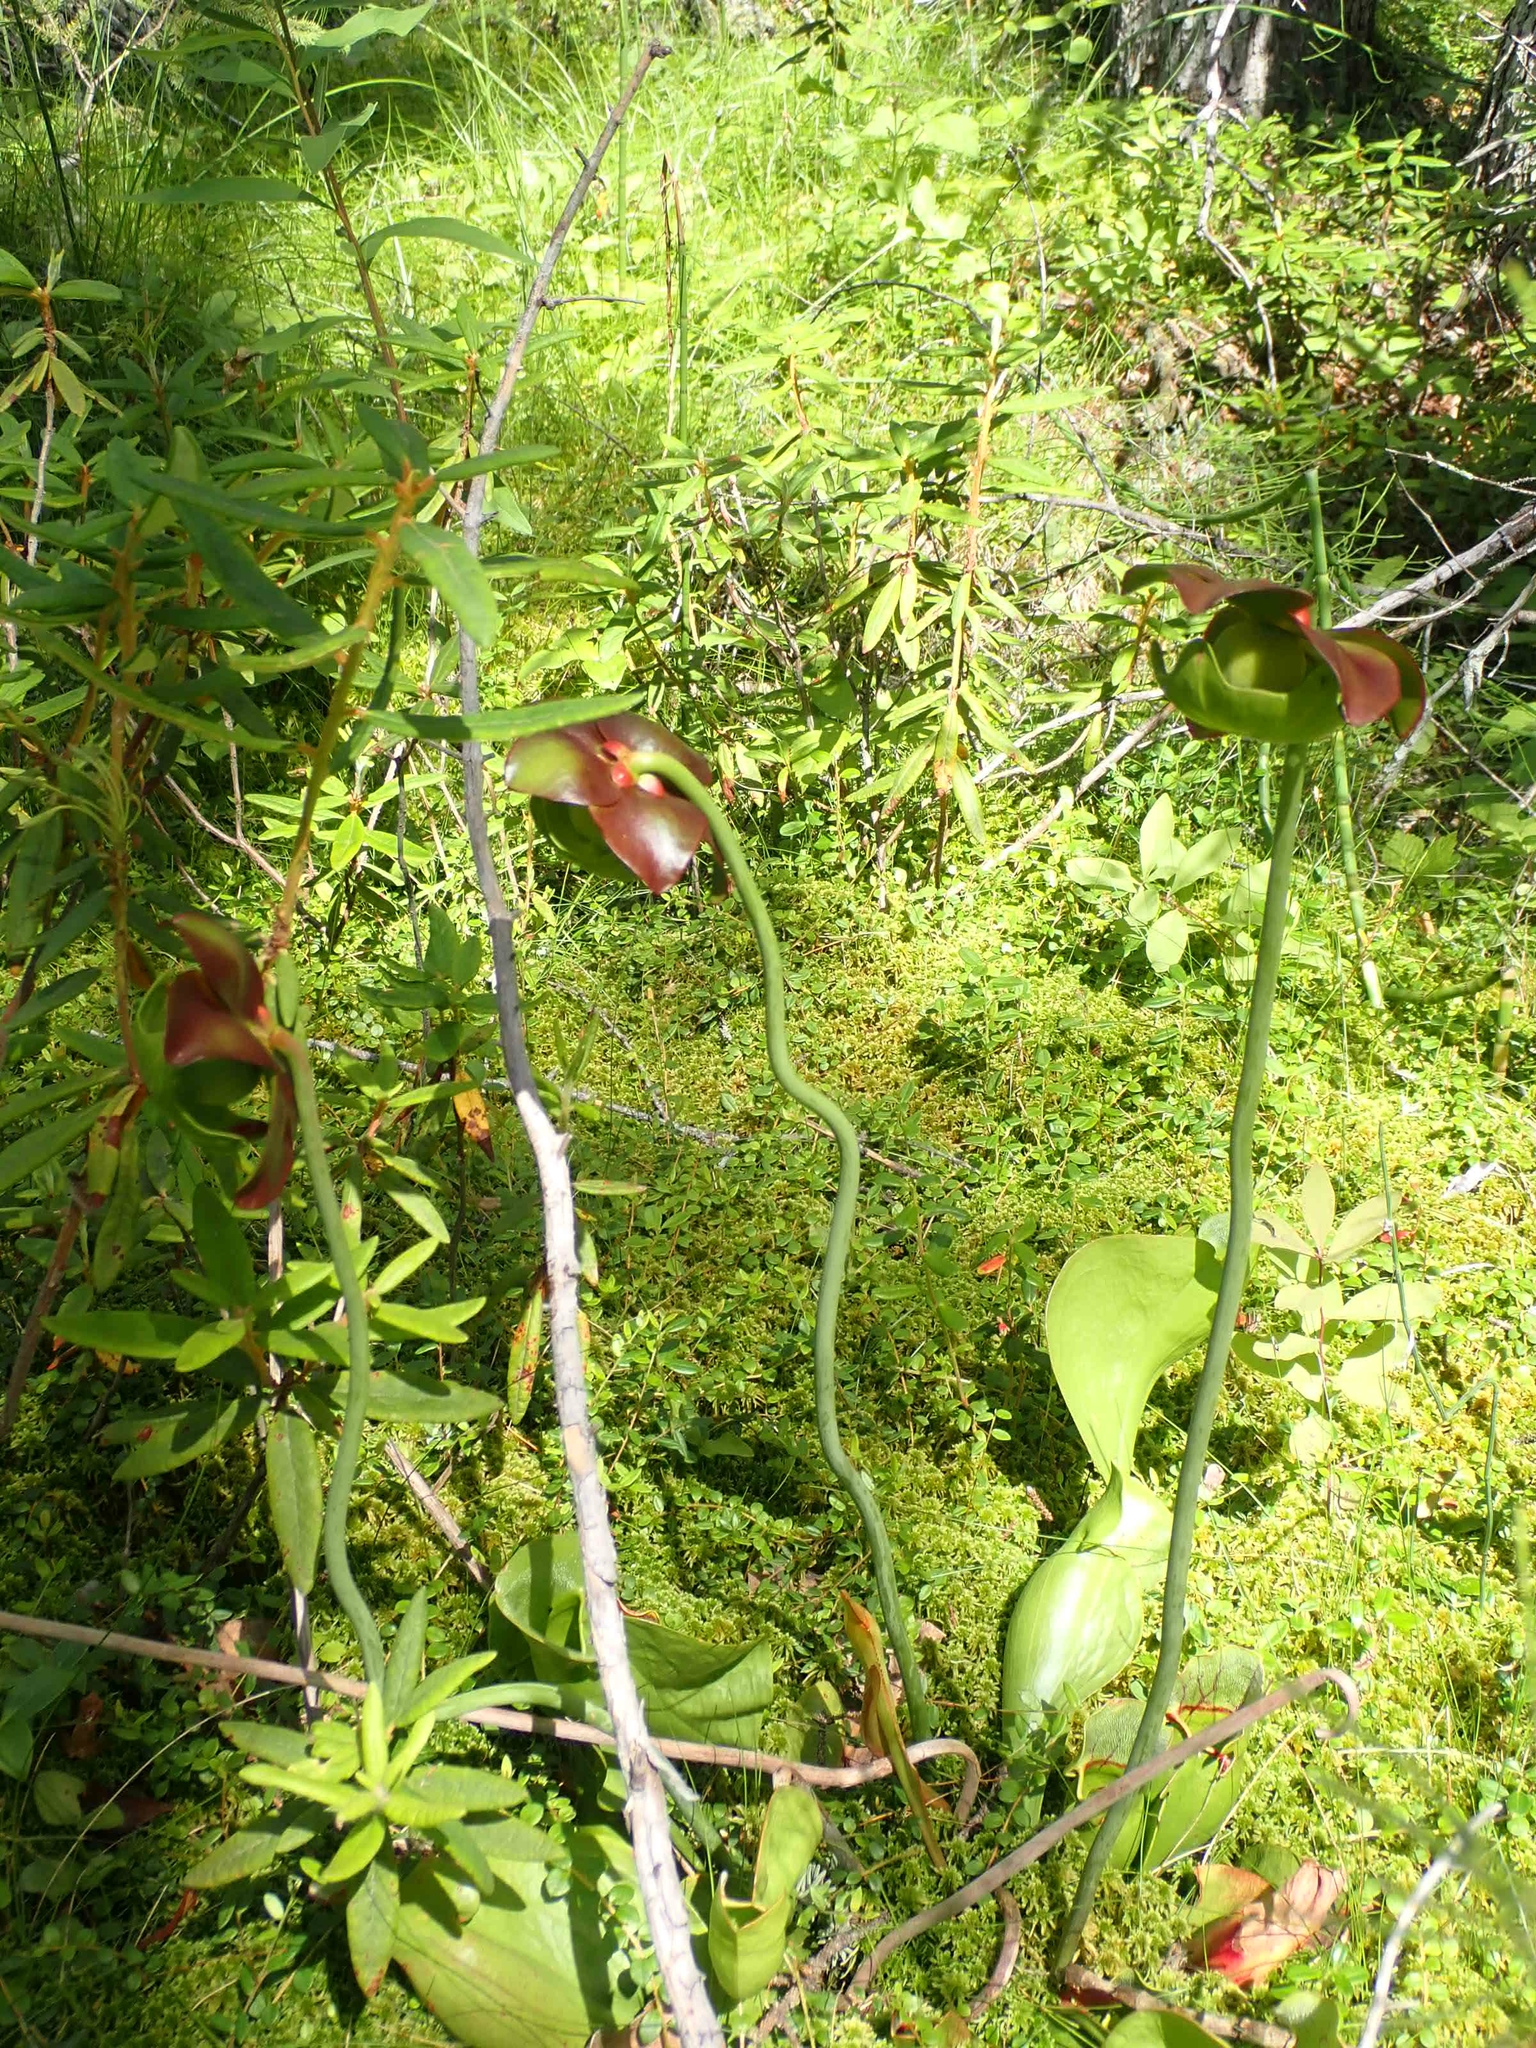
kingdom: Plantae
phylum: Tracheophyta
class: Magnoliopsida
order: Ericales
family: Sarraceniaceae
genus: Sarracenia
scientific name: Sarracenia purpurea
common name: Pitcherplant
